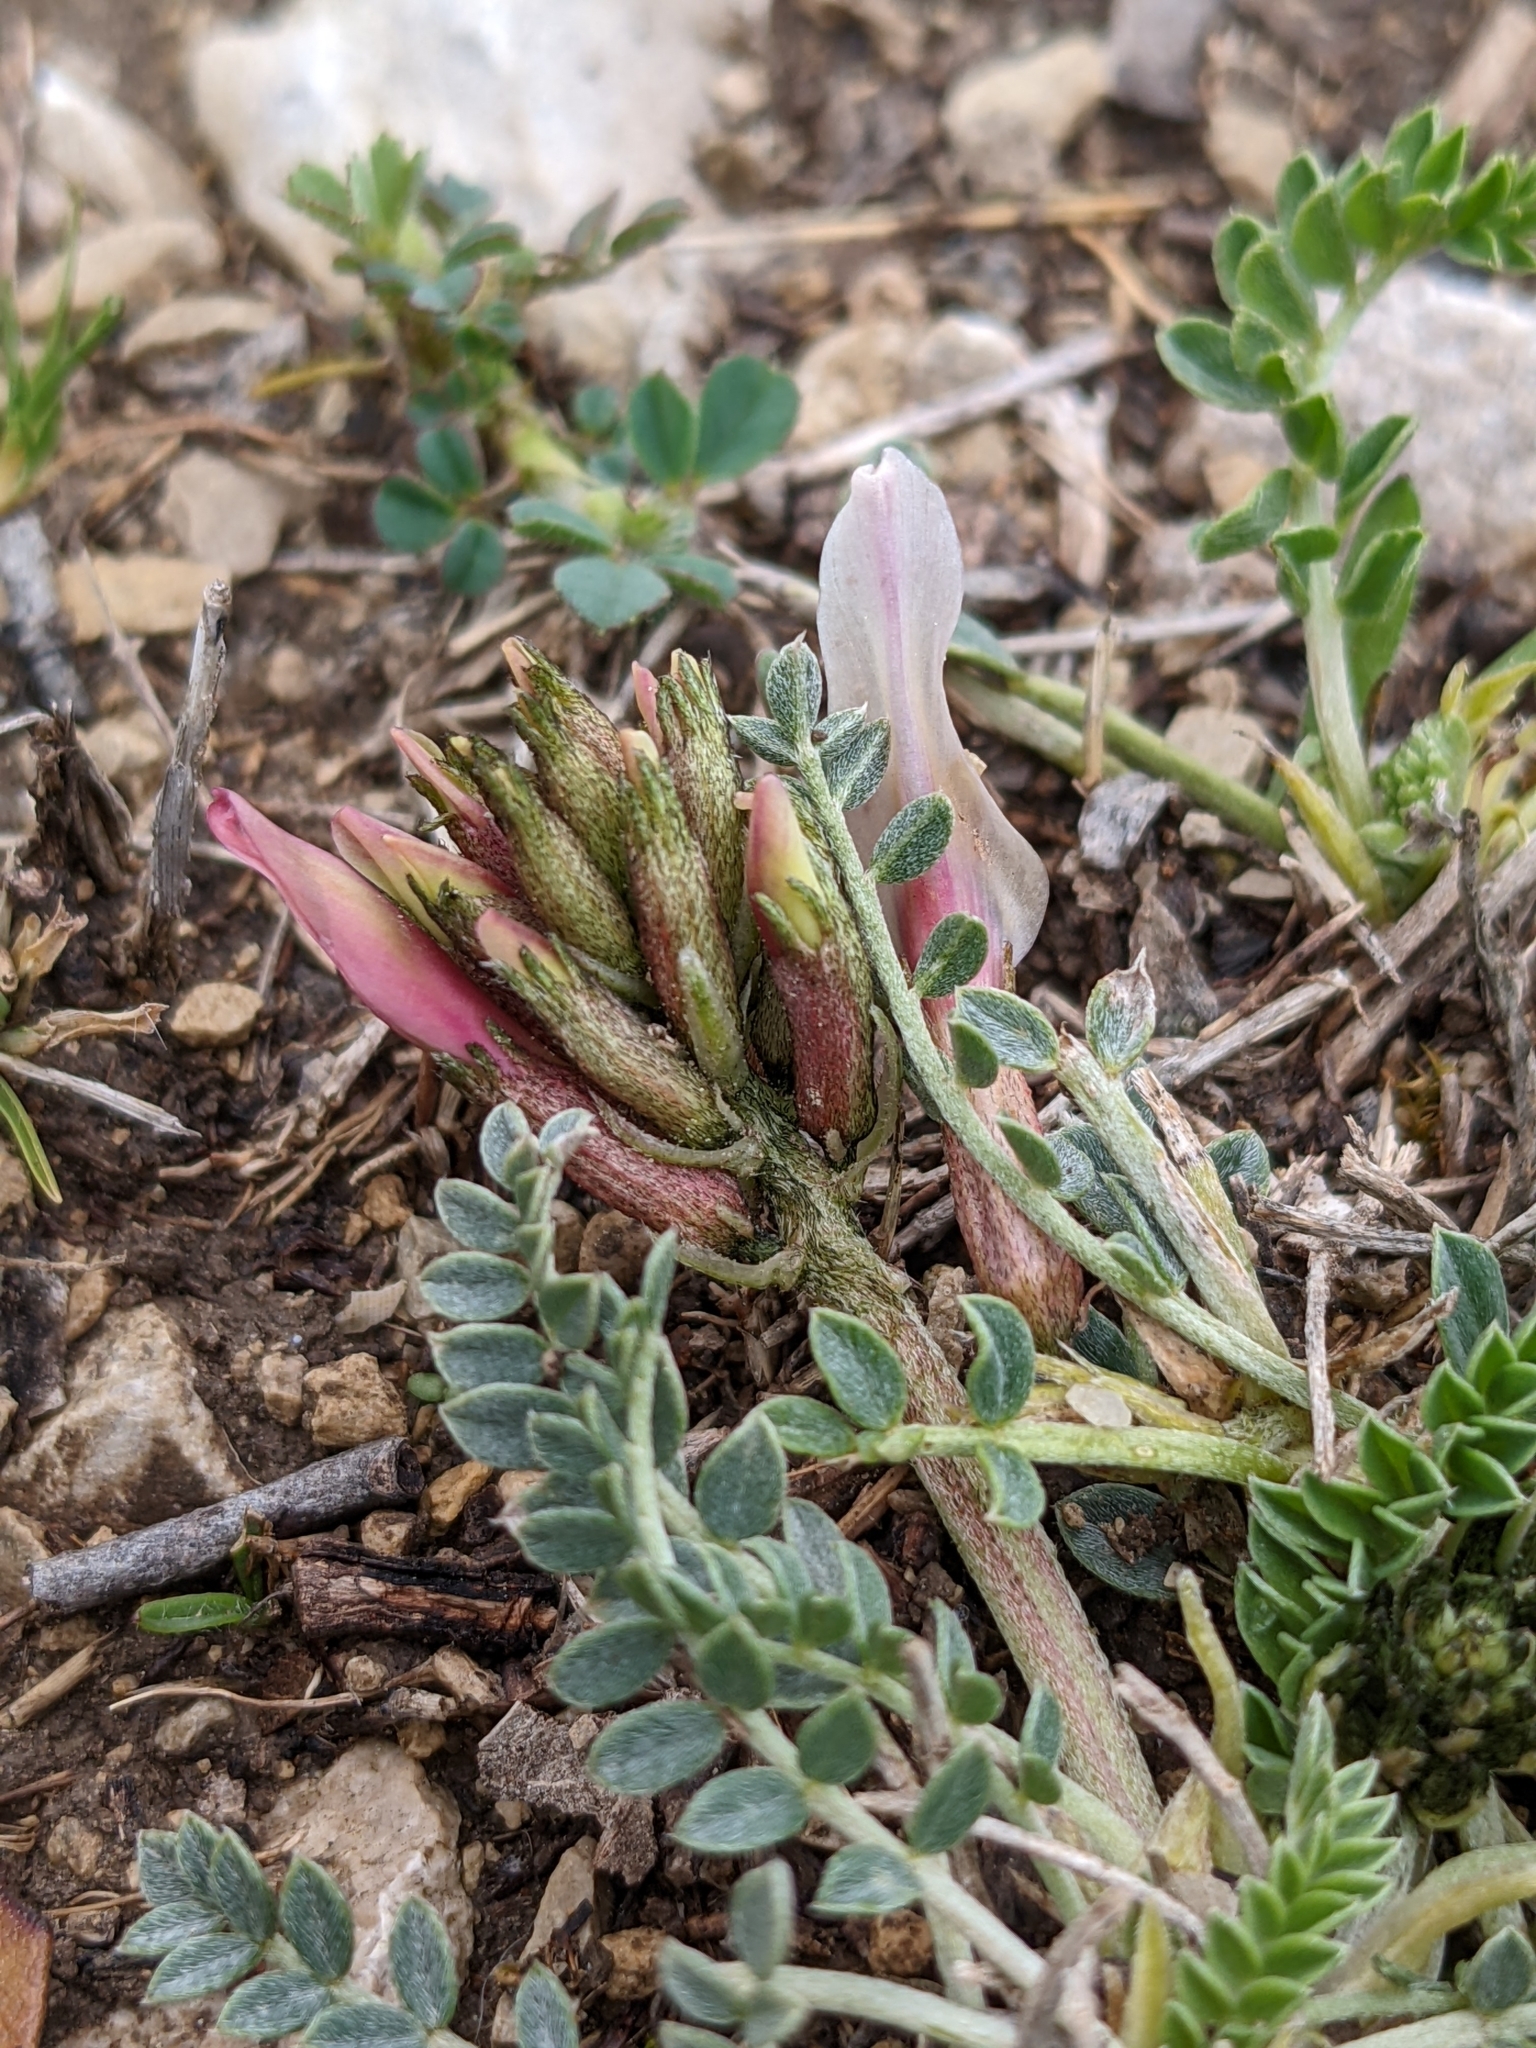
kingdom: Plantae
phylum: Tracheophyta
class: Magnoliopsida
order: Fabales
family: Fabaceae
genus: Astragalus
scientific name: Astragalus incanus
